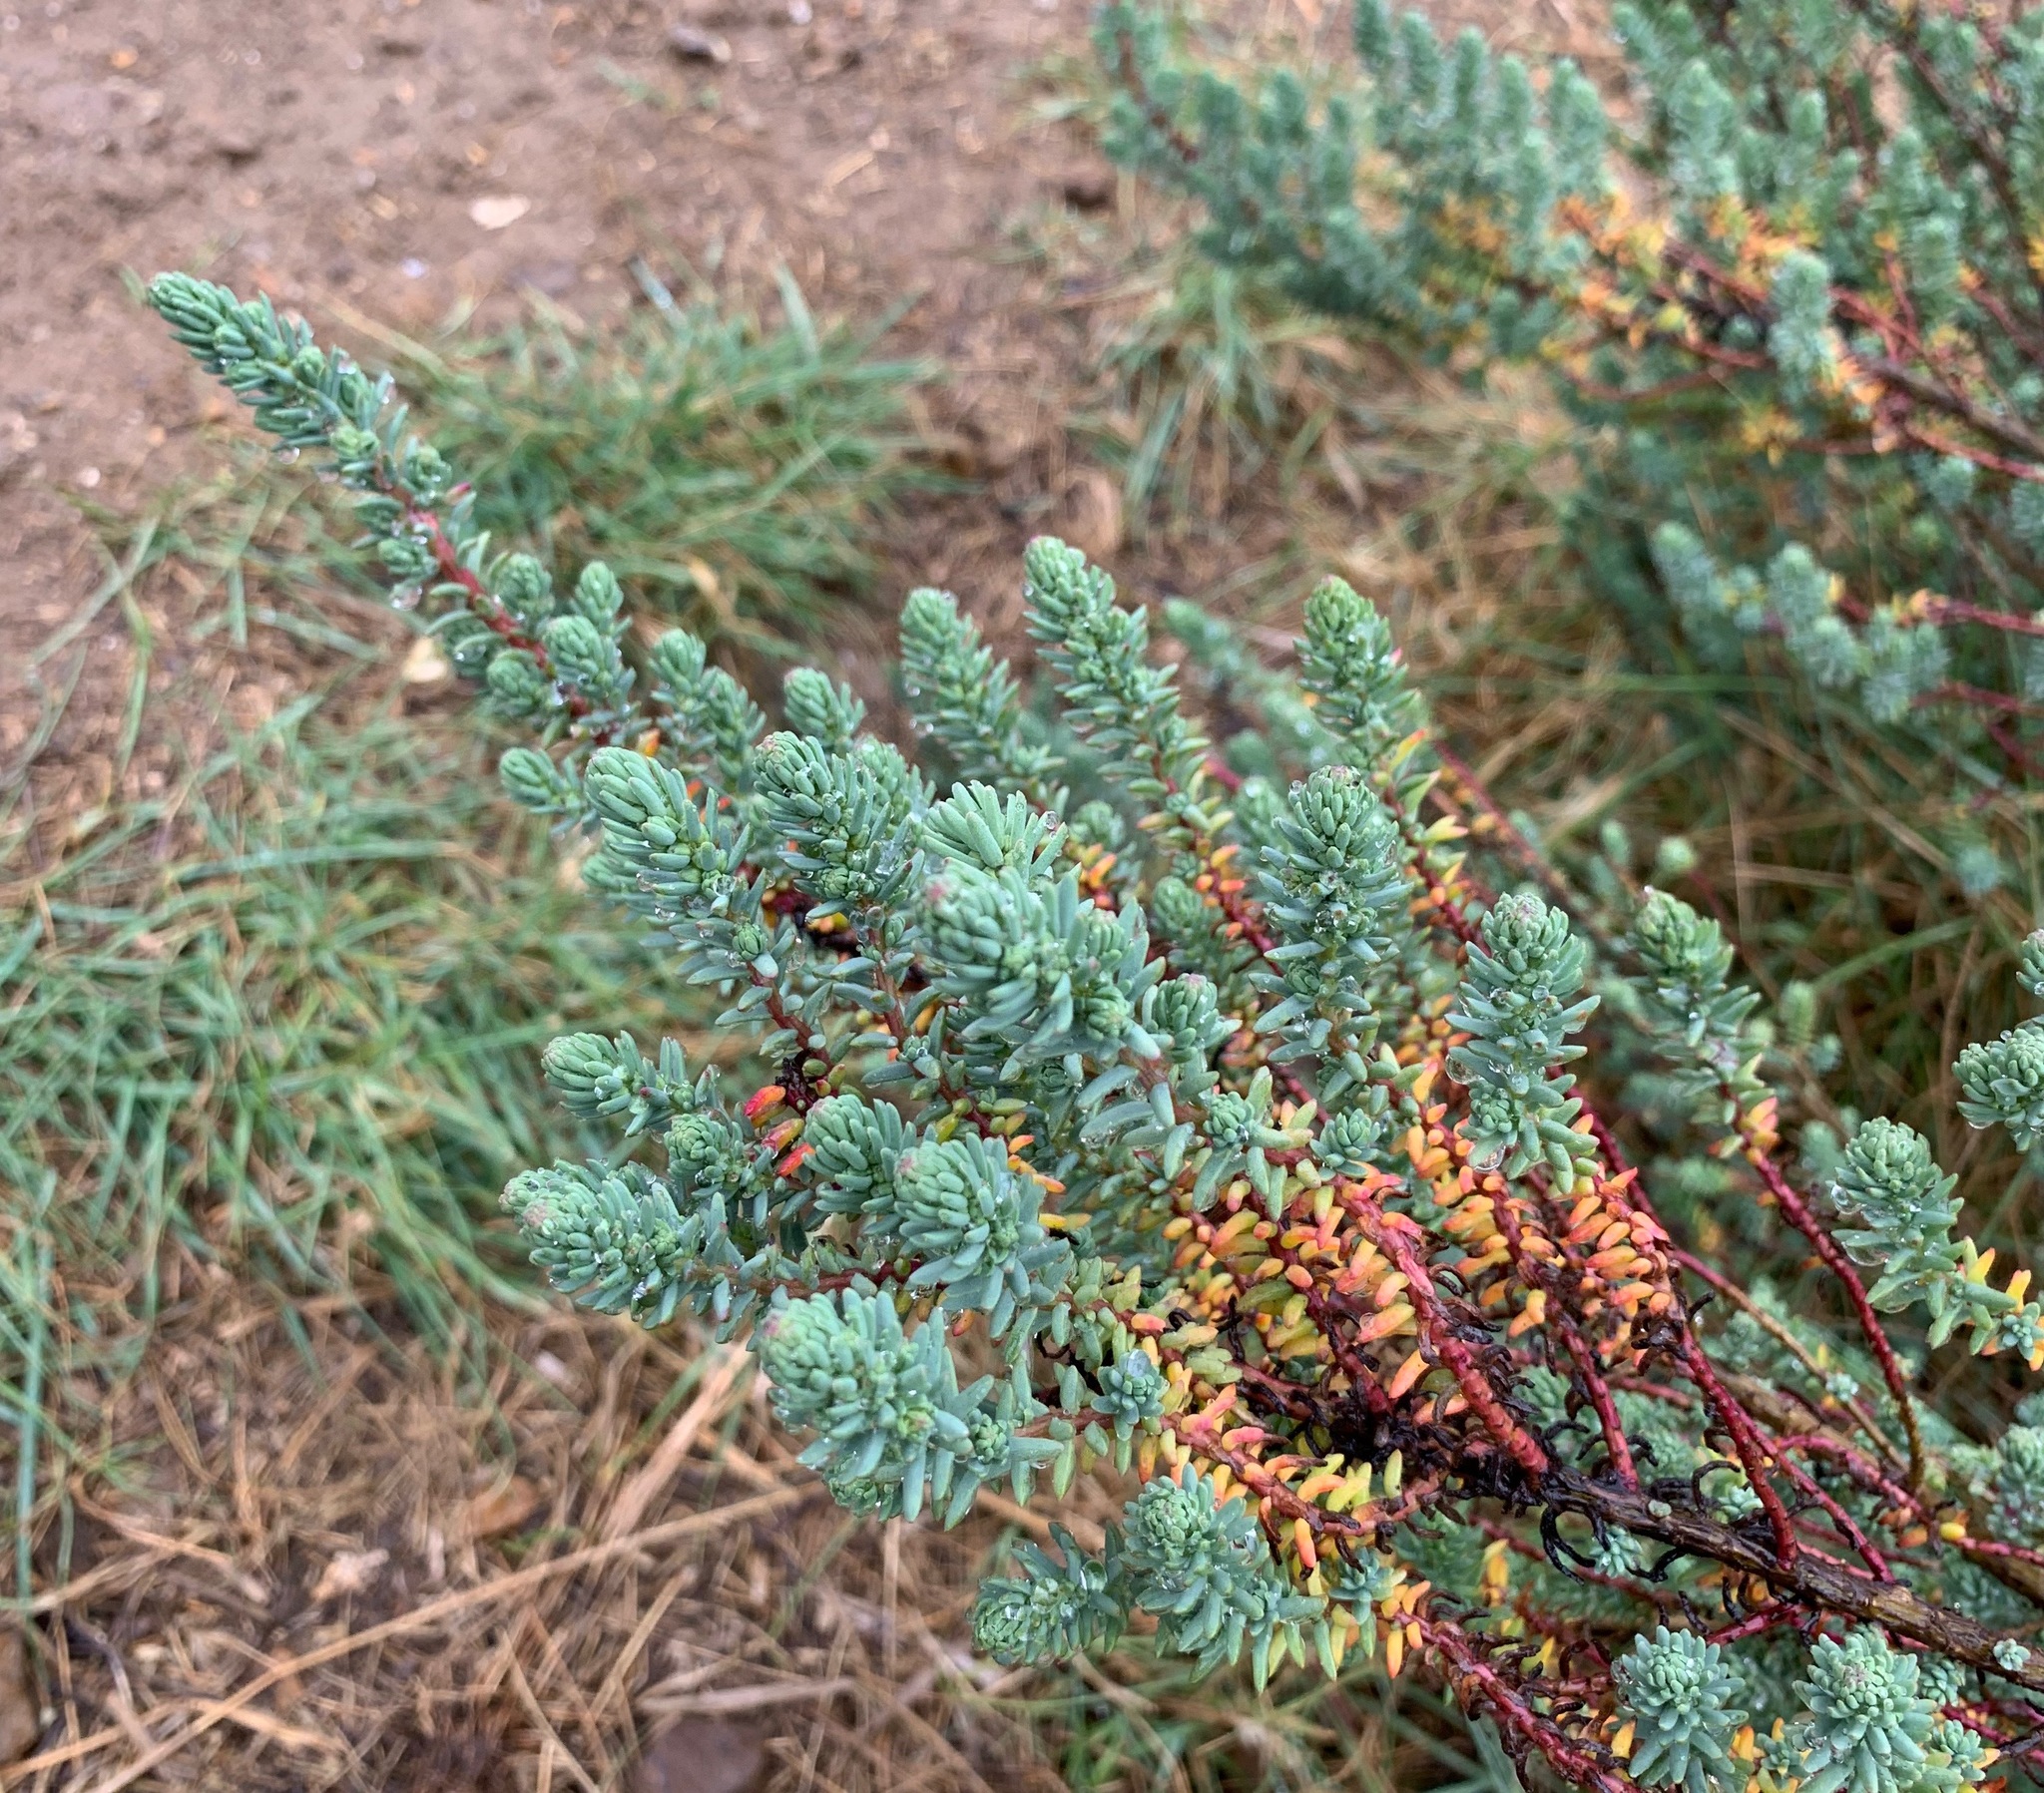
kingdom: Plantae
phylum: Tracheophyta
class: Magnoliopsida
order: Caryophyllales
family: Amaranthaceae
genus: Suaeda
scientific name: Suaeda vera
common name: Shrubby sea-blite
